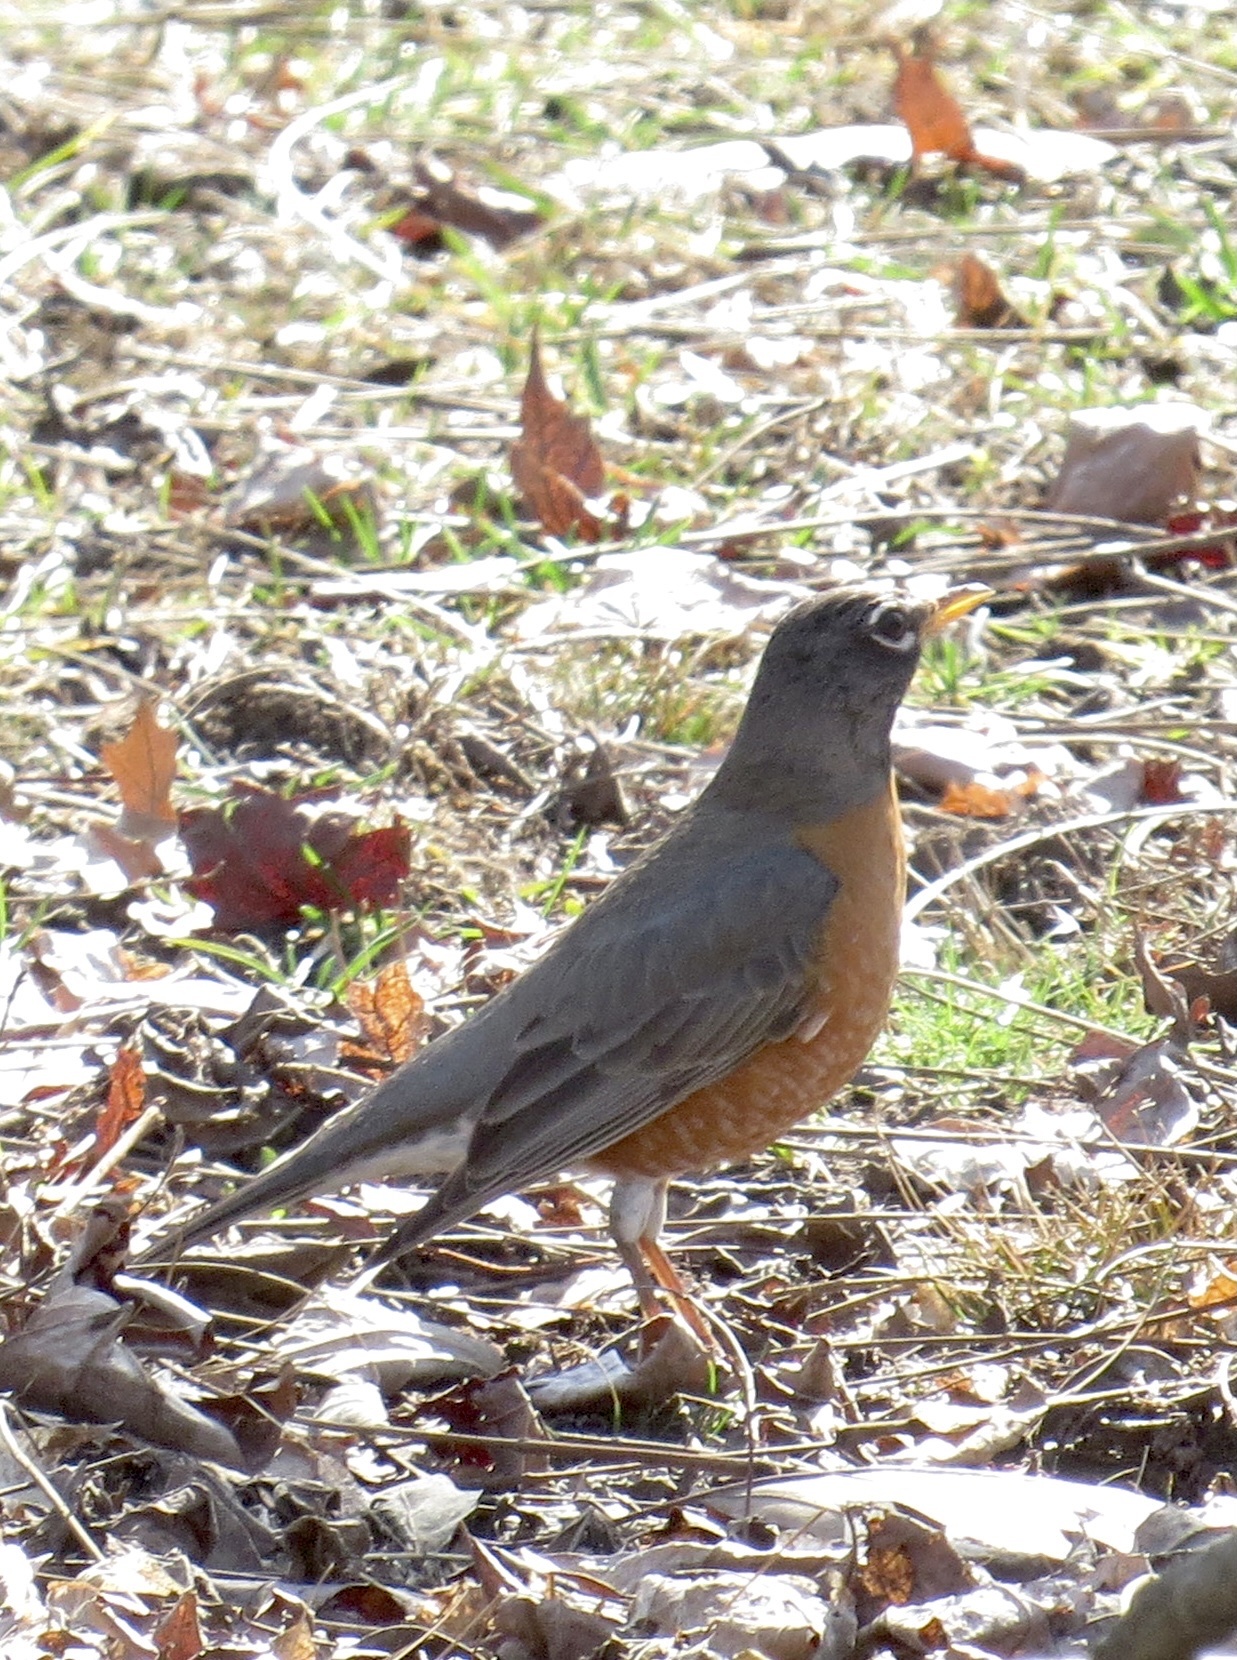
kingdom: Animalia
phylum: Chordata
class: Aves
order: Passeriformes
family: Turdidae
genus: Turdus
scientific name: Turdus migratorius
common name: American robin
